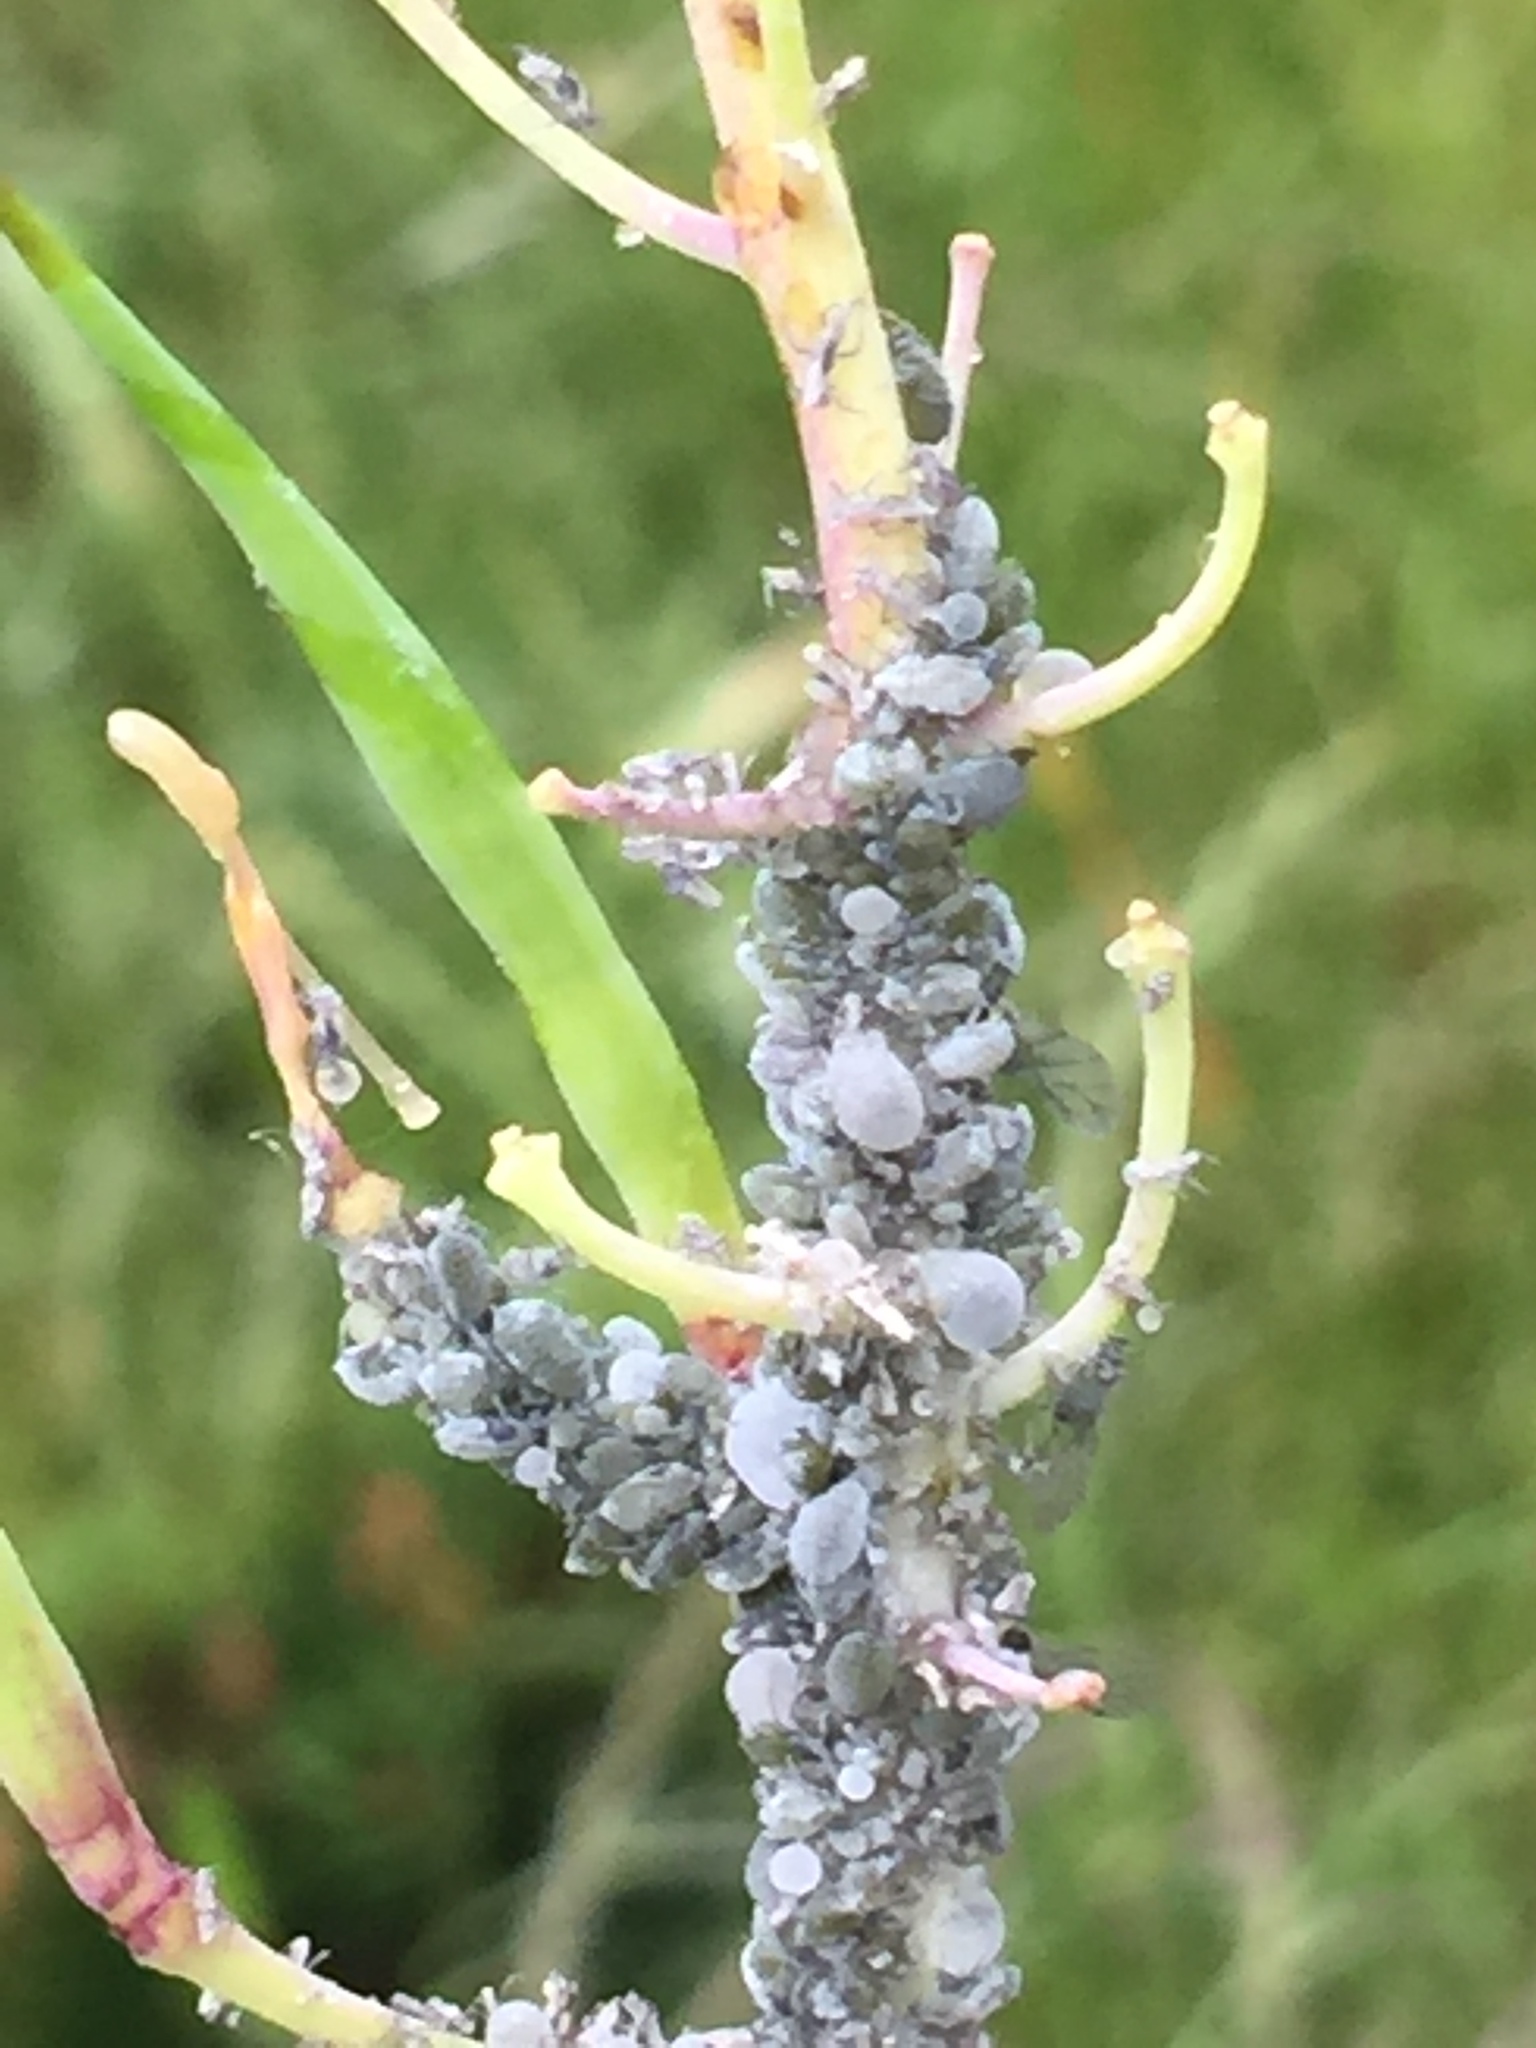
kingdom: Animalia
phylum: Arthropoda
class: Insecta
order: Hemiptera
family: Aphididae
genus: Brevicoryne
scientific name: Brevicoryne brassicae
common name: Cabbage aphid
